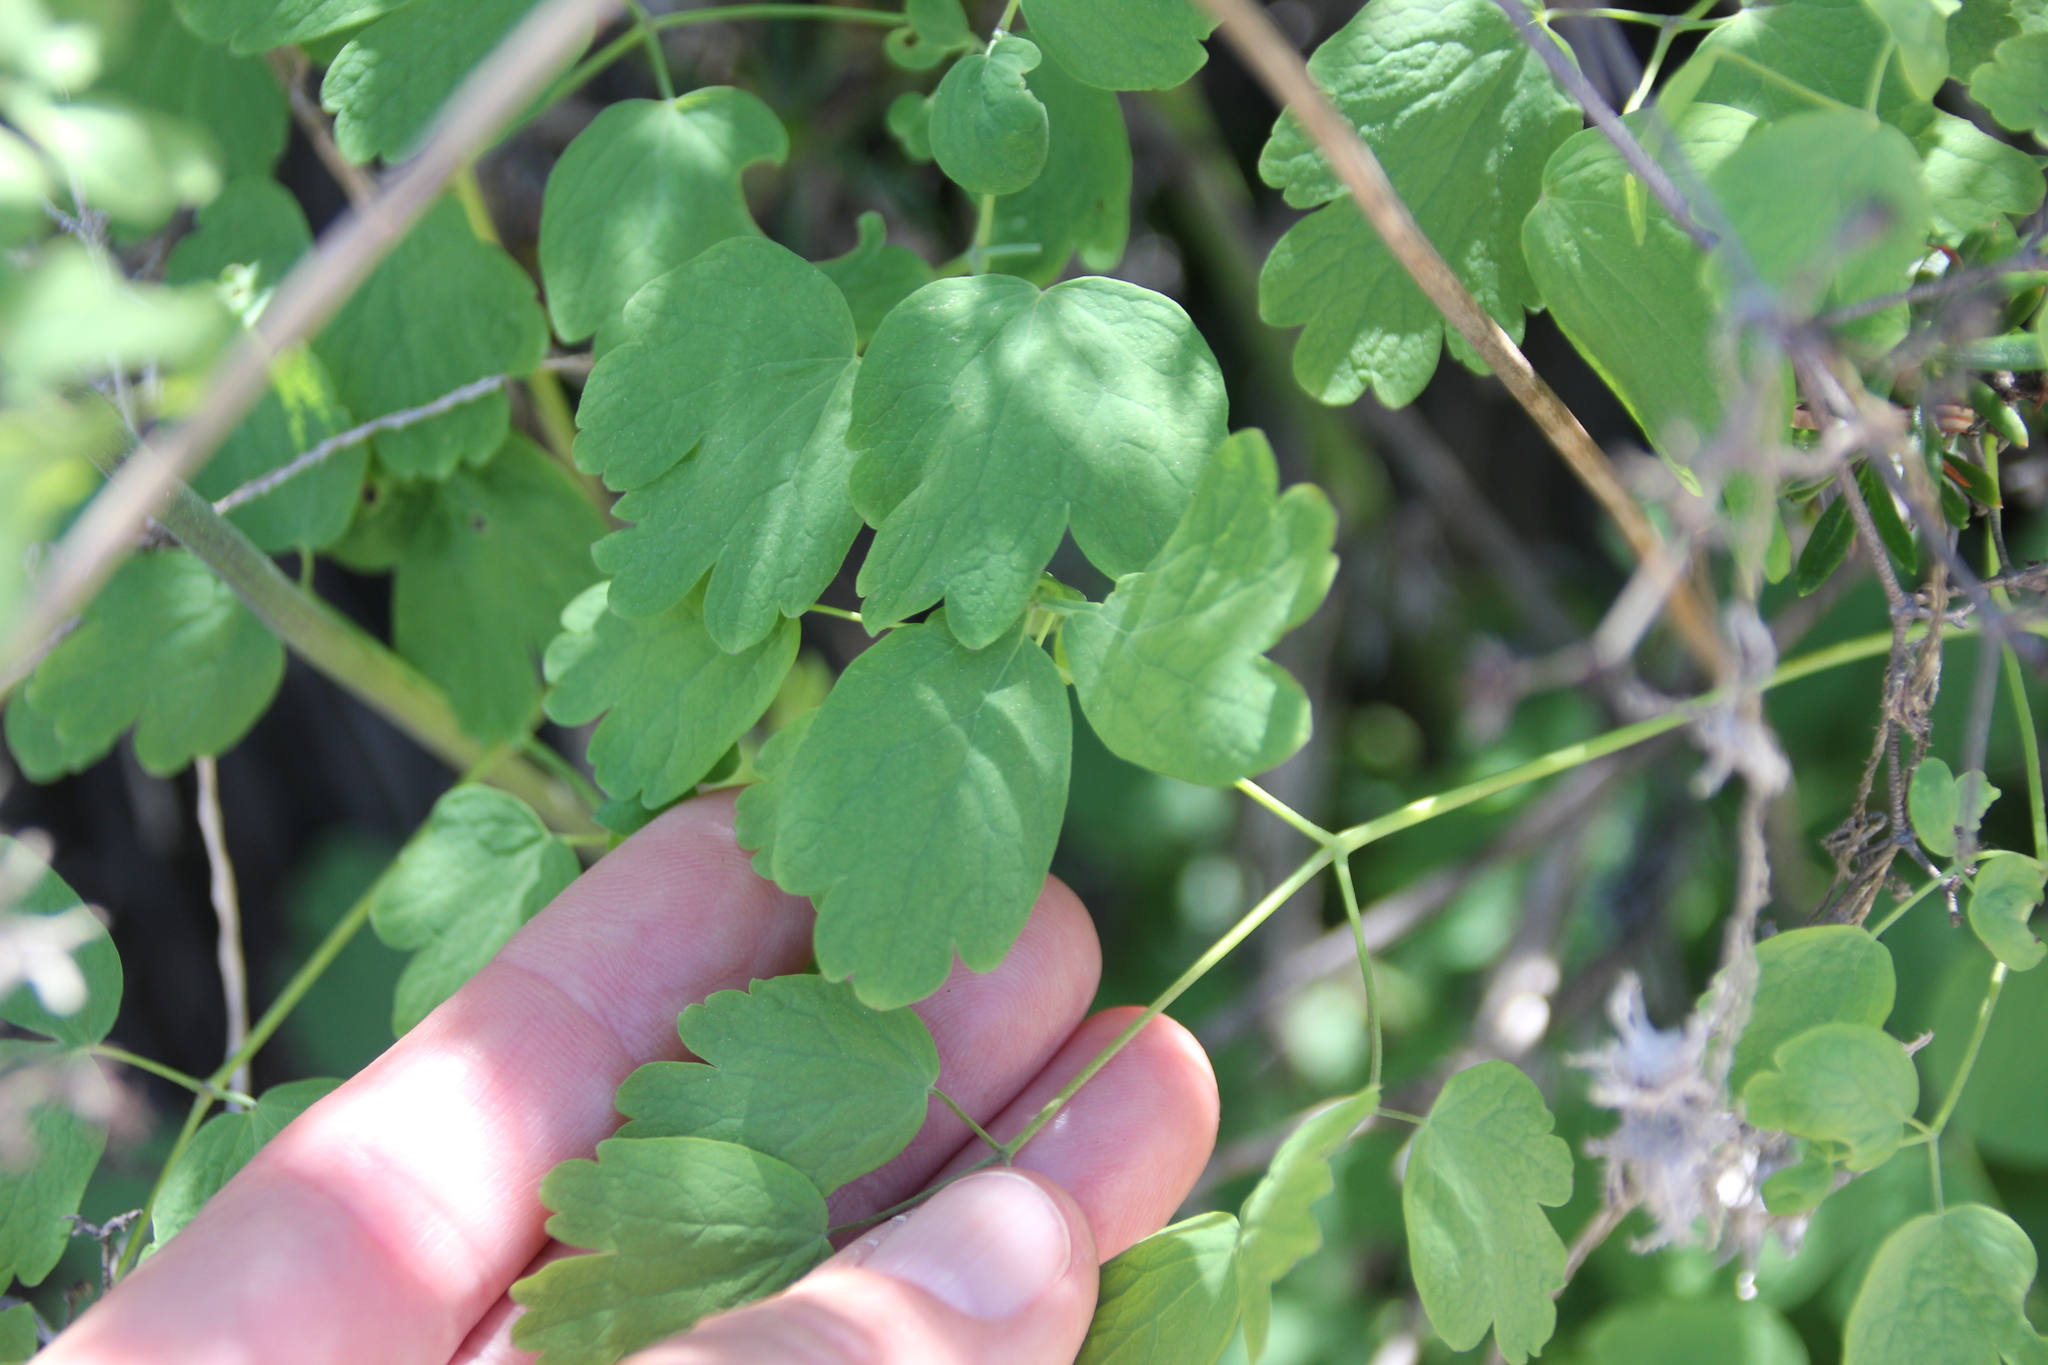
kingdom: Plantae
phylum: Tracheophyta
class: Magnoliopsida
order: Ranunculales
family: Ranunculaceae
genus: Thalictrum
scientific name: Thalictrum fendleri
